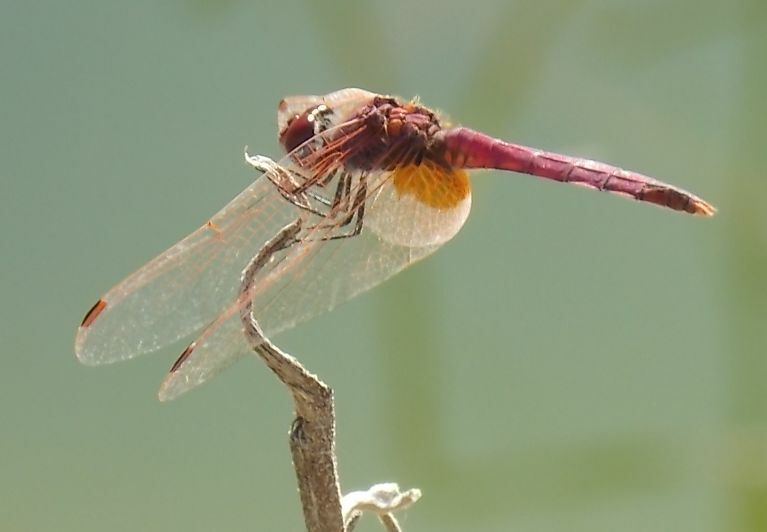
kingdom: Animalia
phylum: Arthropoda
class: Insecta
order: Odonata
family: Libellulidae
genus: Trithemis
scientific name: Trithemis annulata
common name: Violet dropwing
